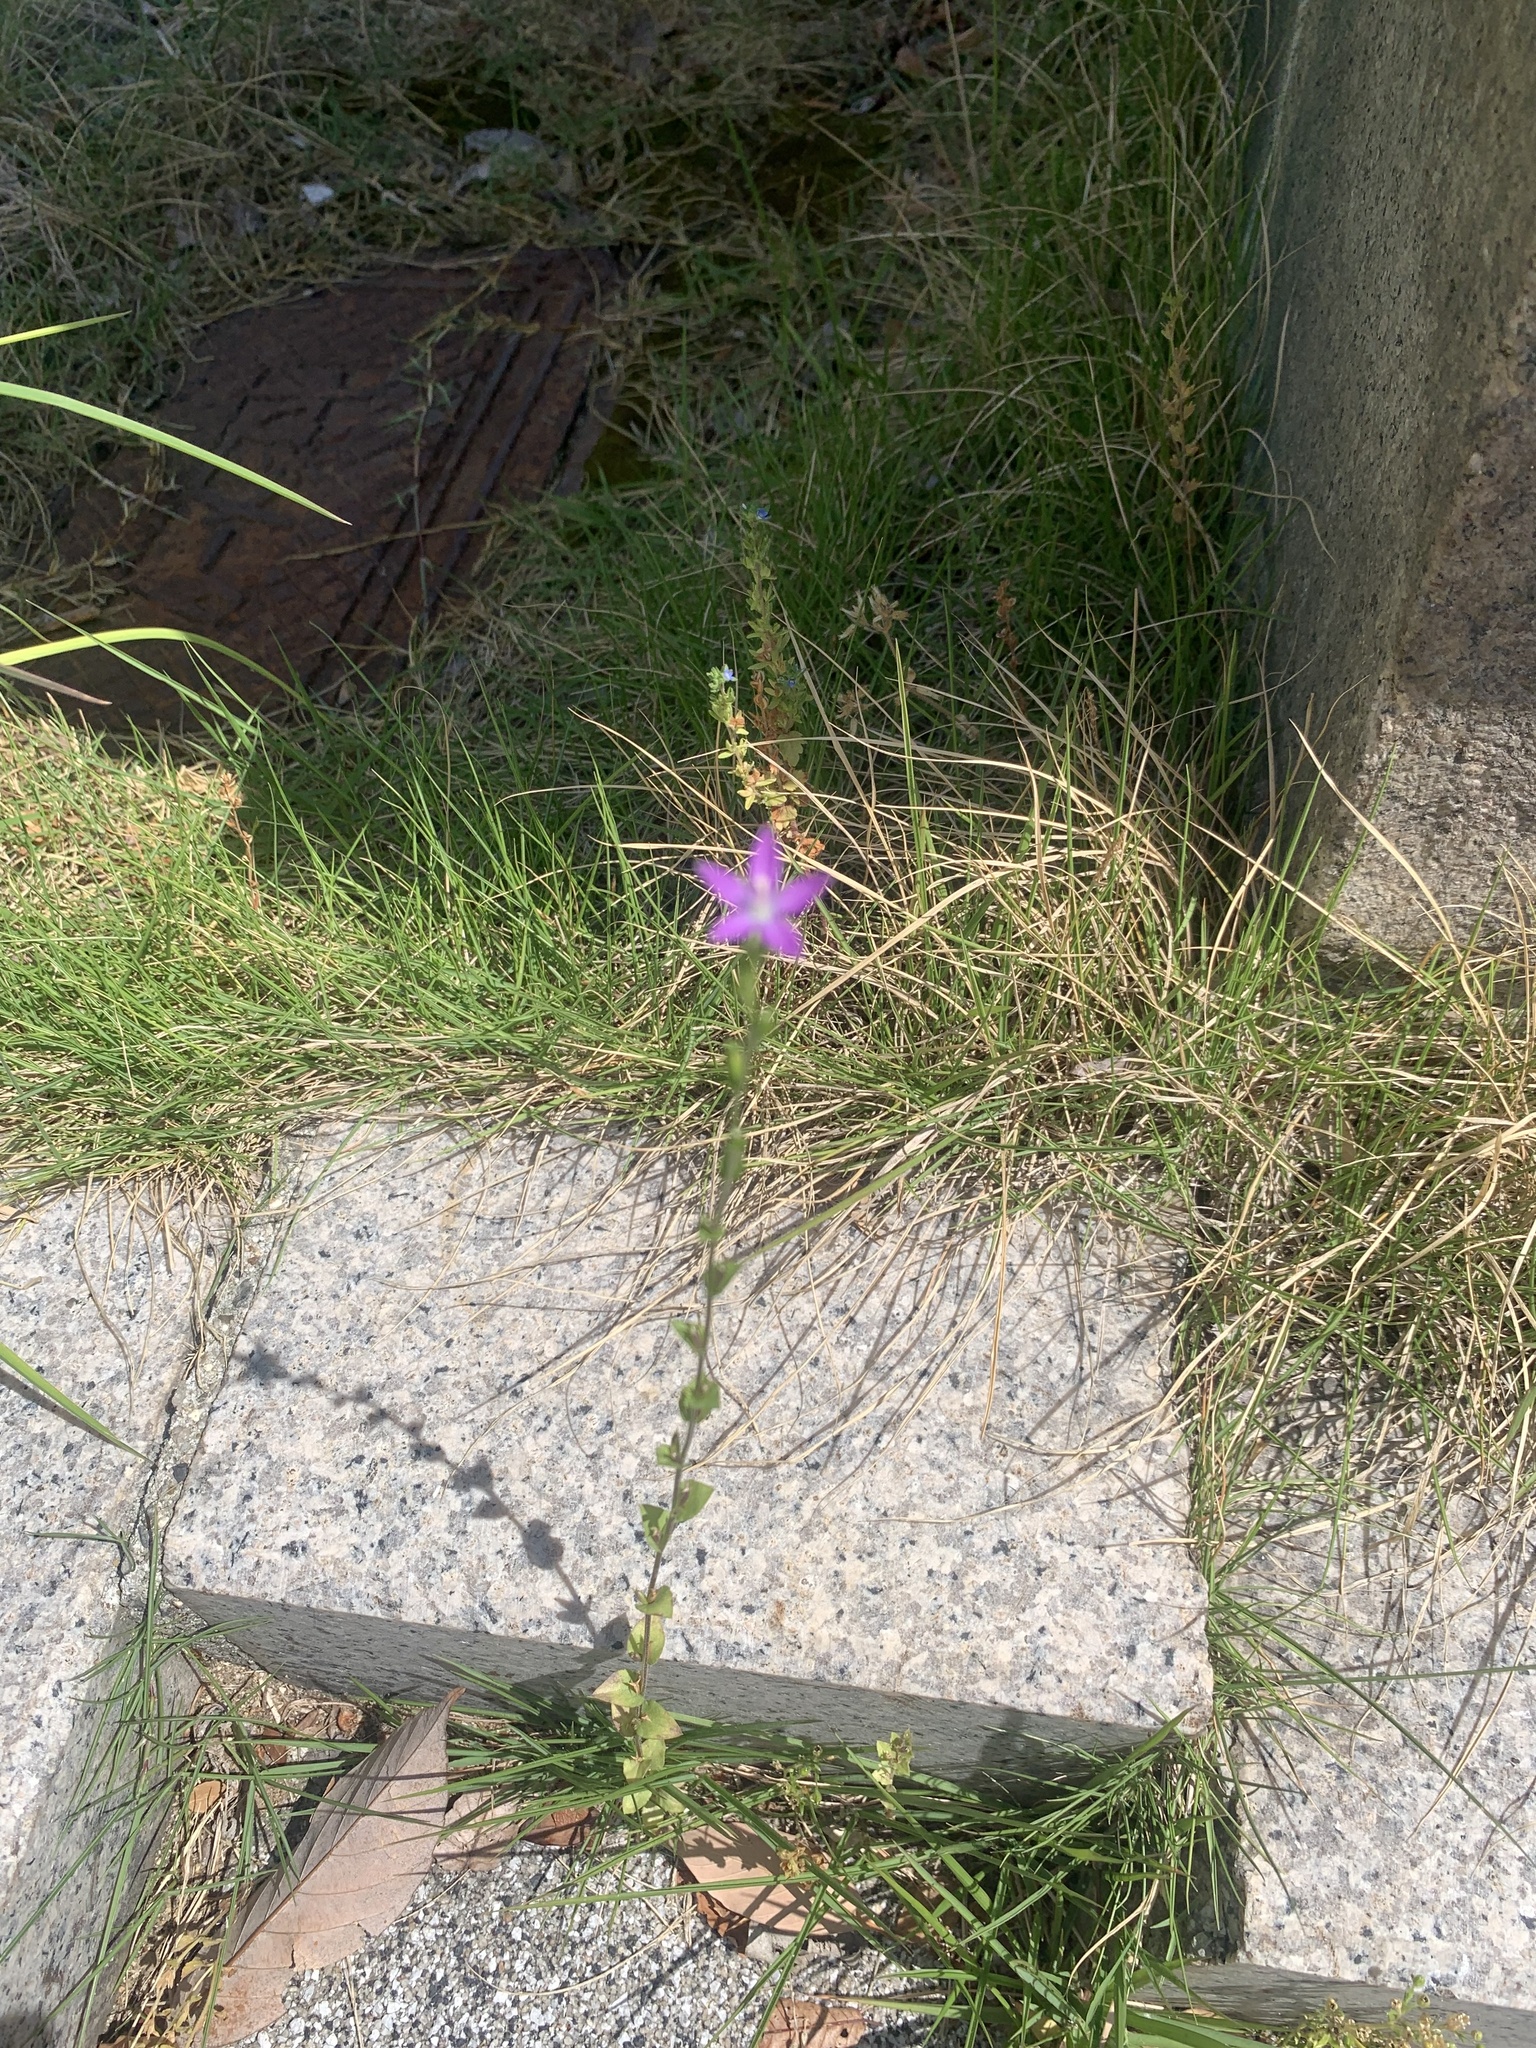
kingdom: Plantae
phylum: Tracheophyta
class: Magnoliopsida
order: Asterales
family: Campanulaceae
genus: Triodanis
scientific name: Triodanis biflora
